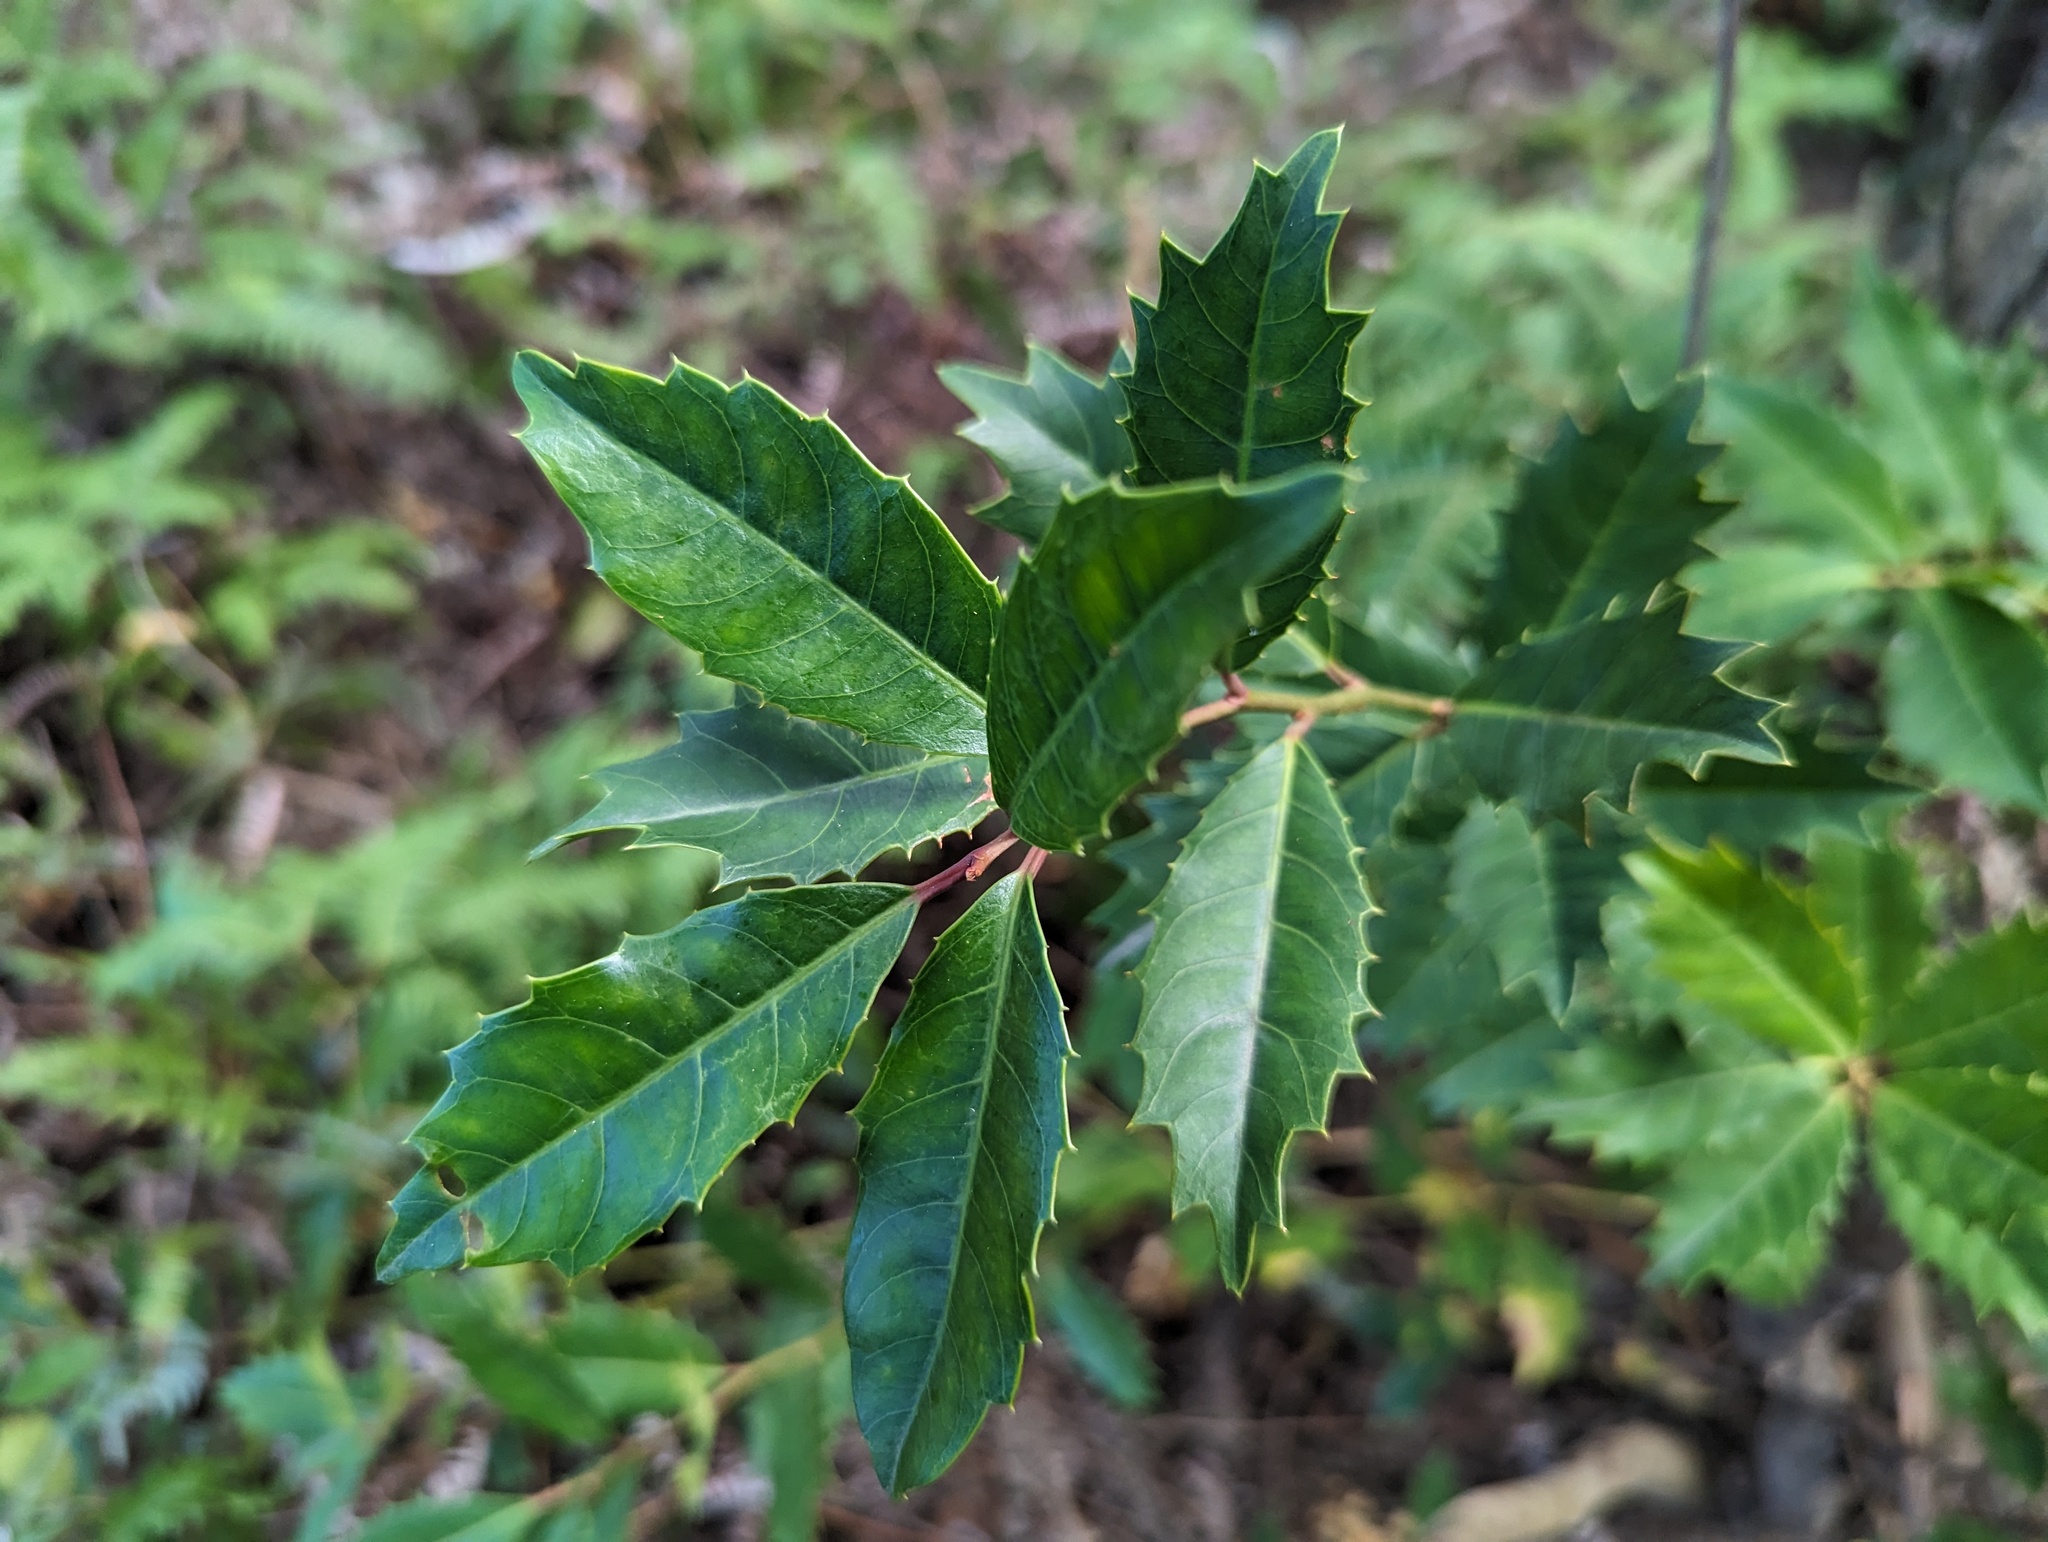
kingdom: Plantae
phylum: Tracheophyta
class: Magnoliopsida
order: Saxifragales
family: Iteaceae
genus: Itea
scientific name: Itea oldhamii
